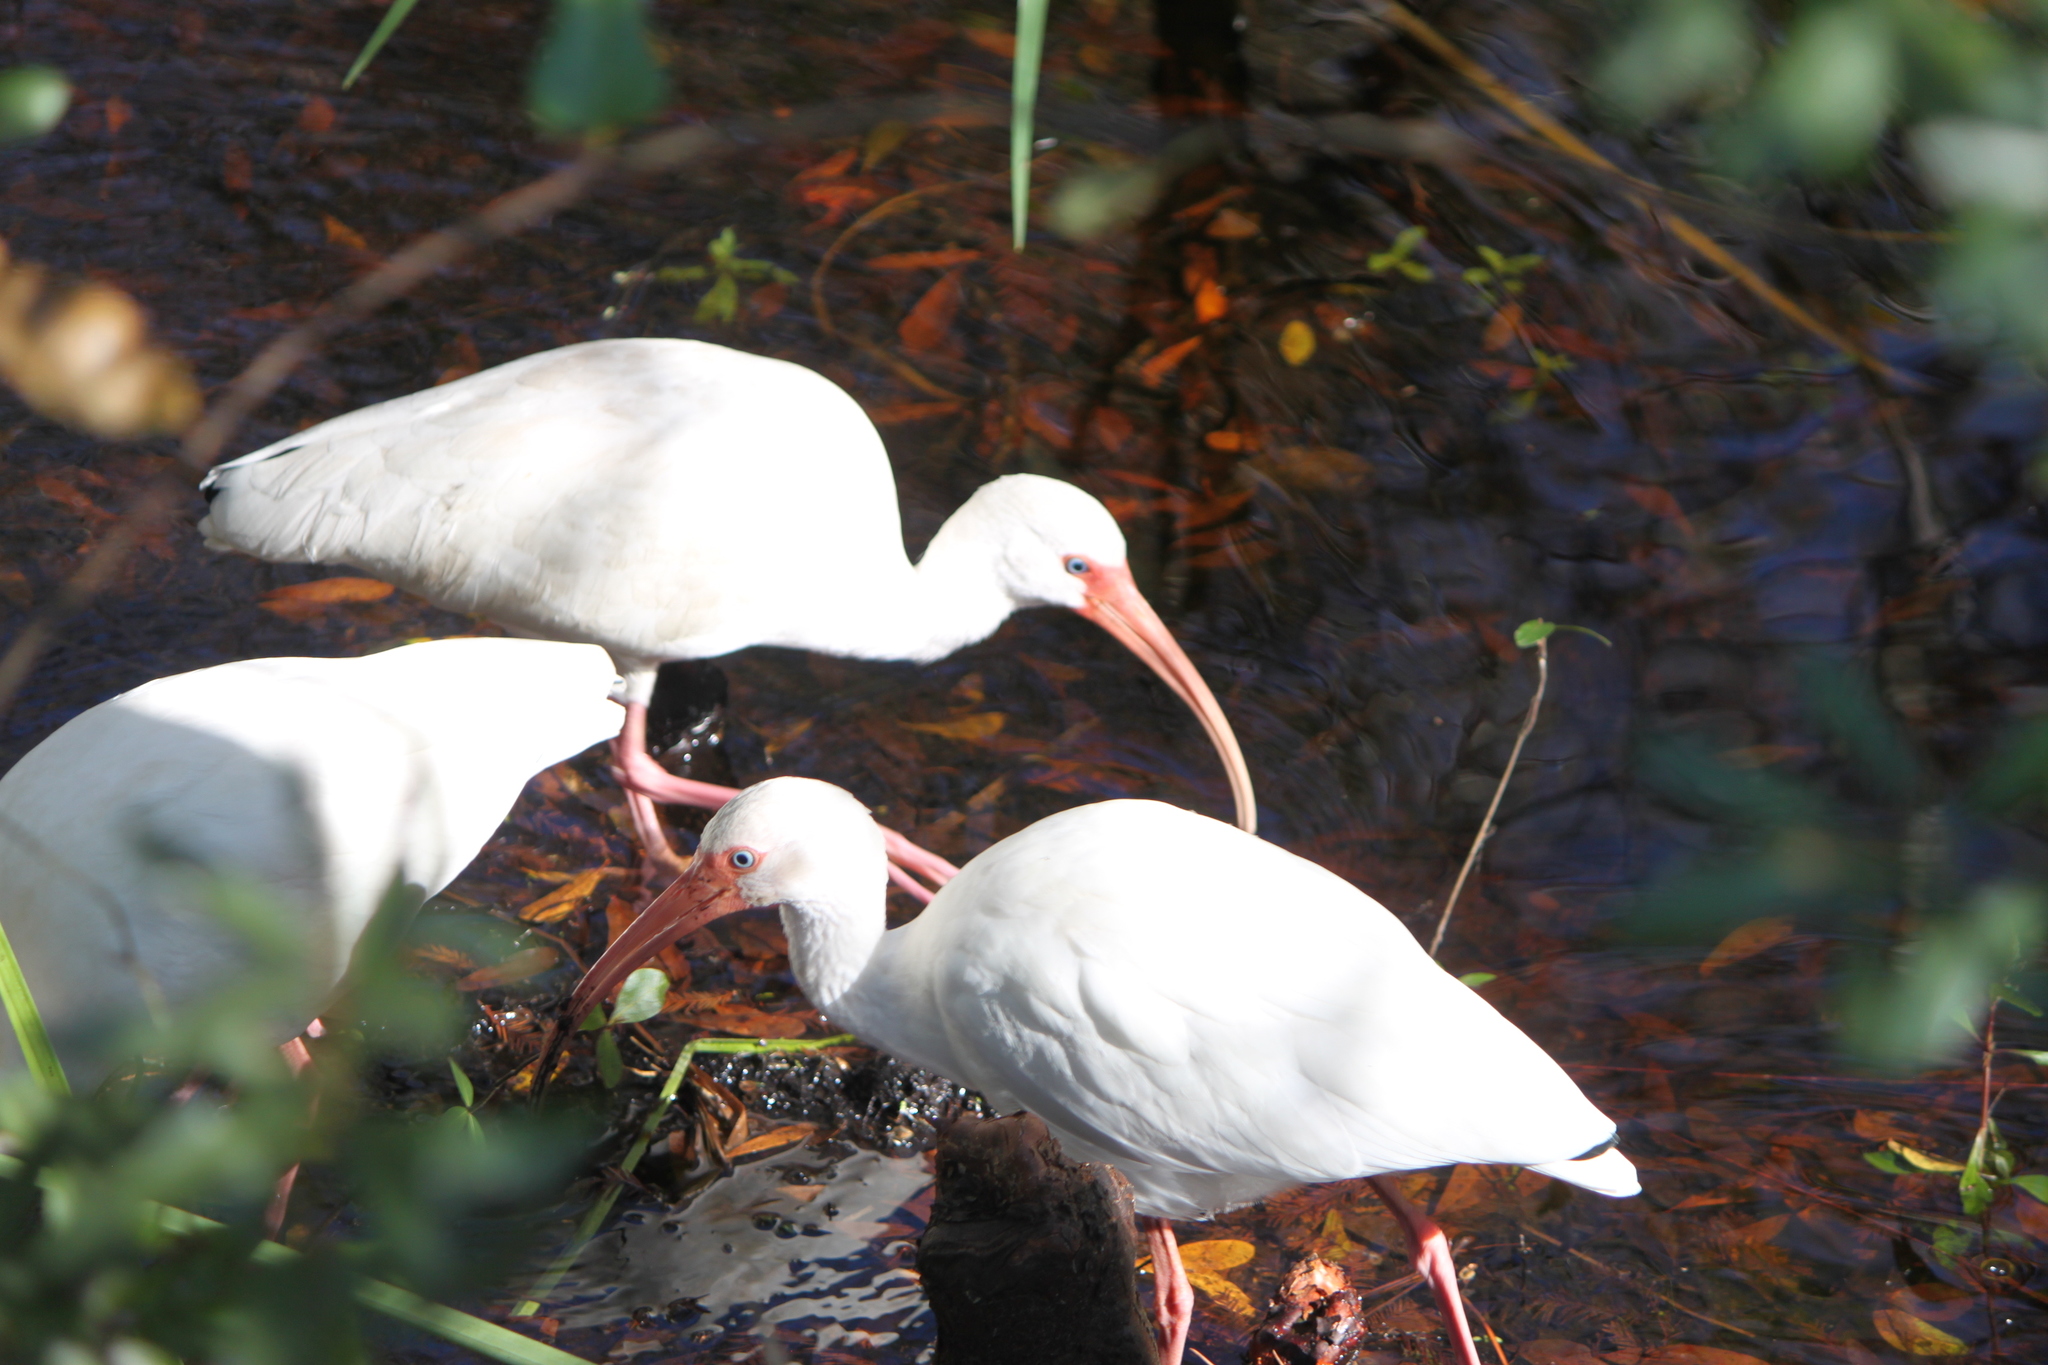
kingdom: Animalia
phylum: Chordata
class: Aves
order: Pelecaniformes
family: Threskiornithidae
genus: Eudocimus
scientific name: Eudocimus albus
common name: White ibis
